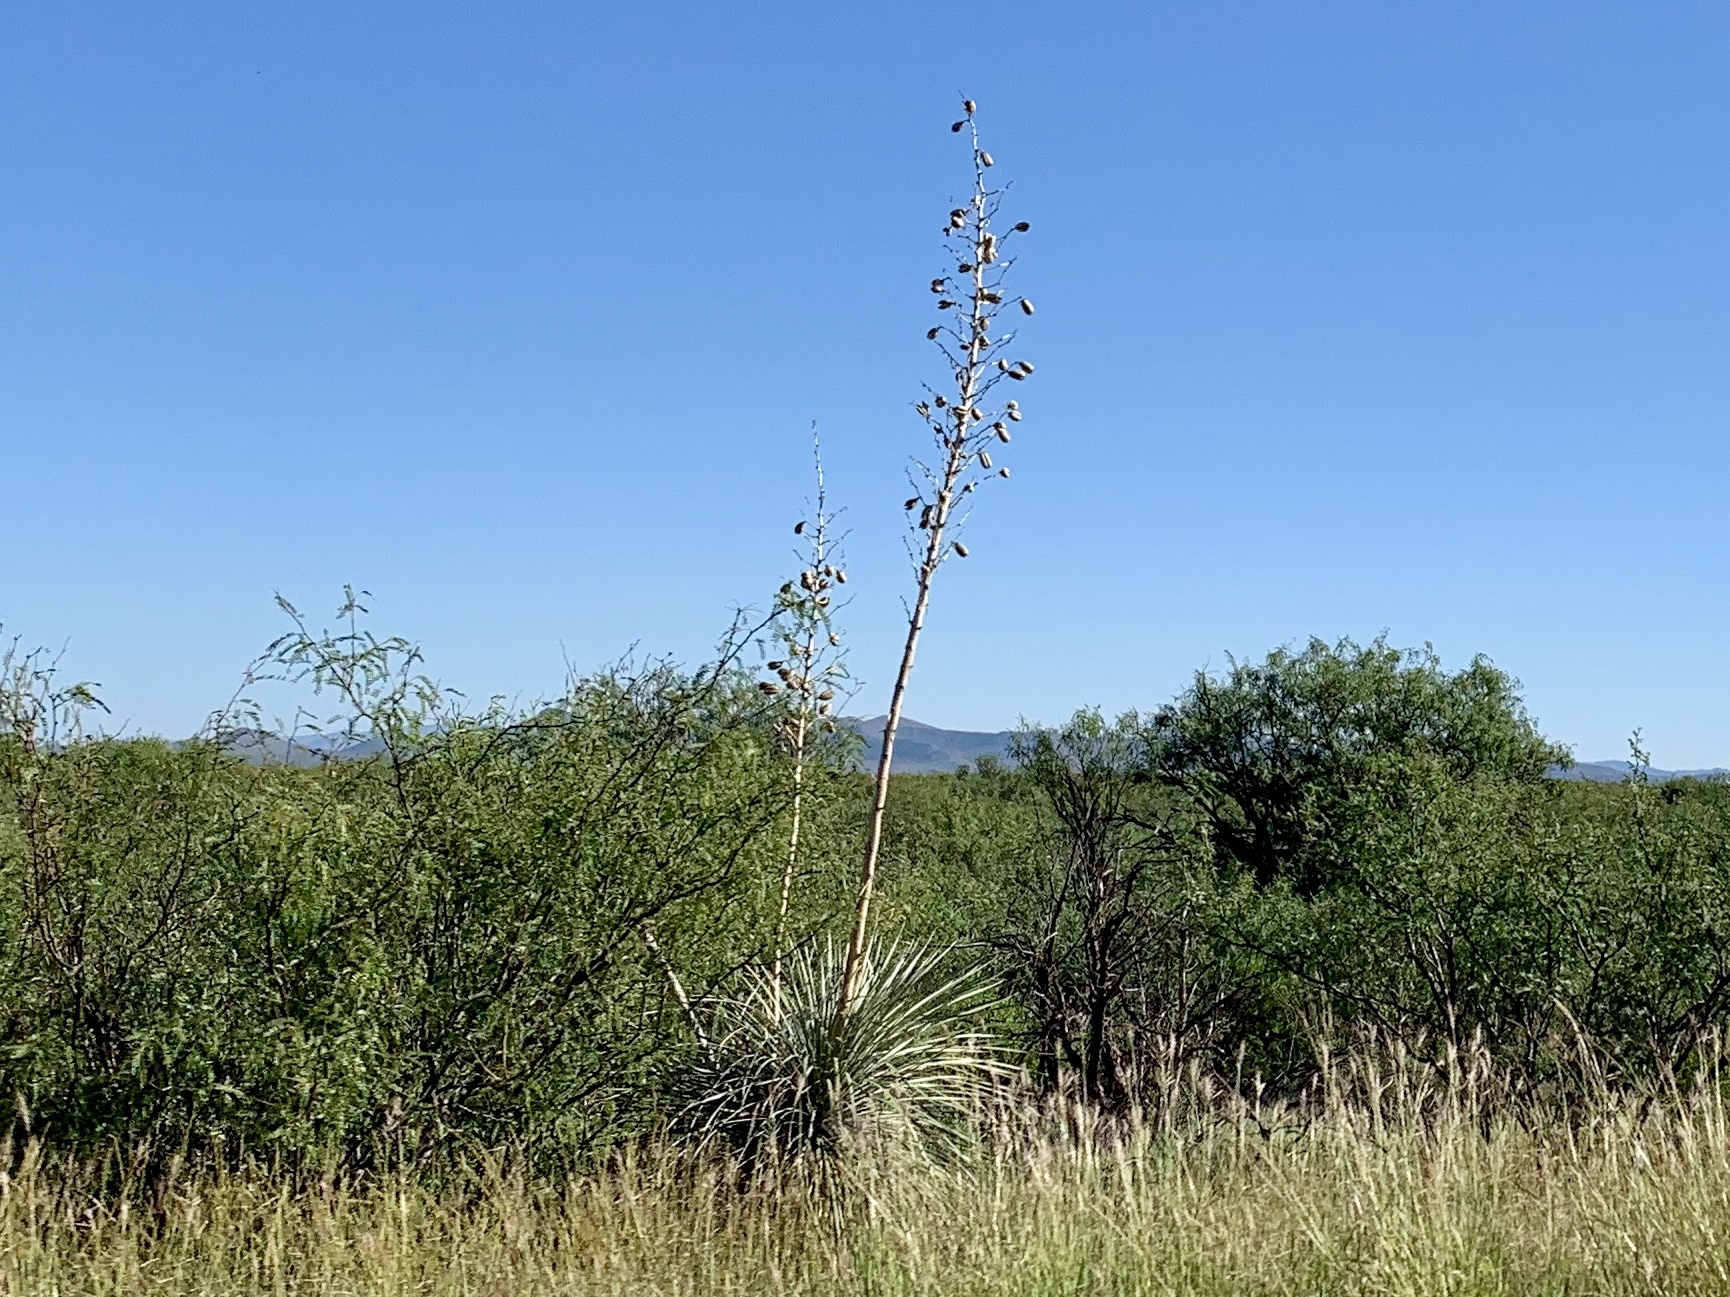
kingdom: Plantae
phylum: Tracheophyta
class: Liliopsida
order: Asparagales
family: Asparagaceae
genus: Yucca
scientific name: Yucca elata
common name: Palmella
